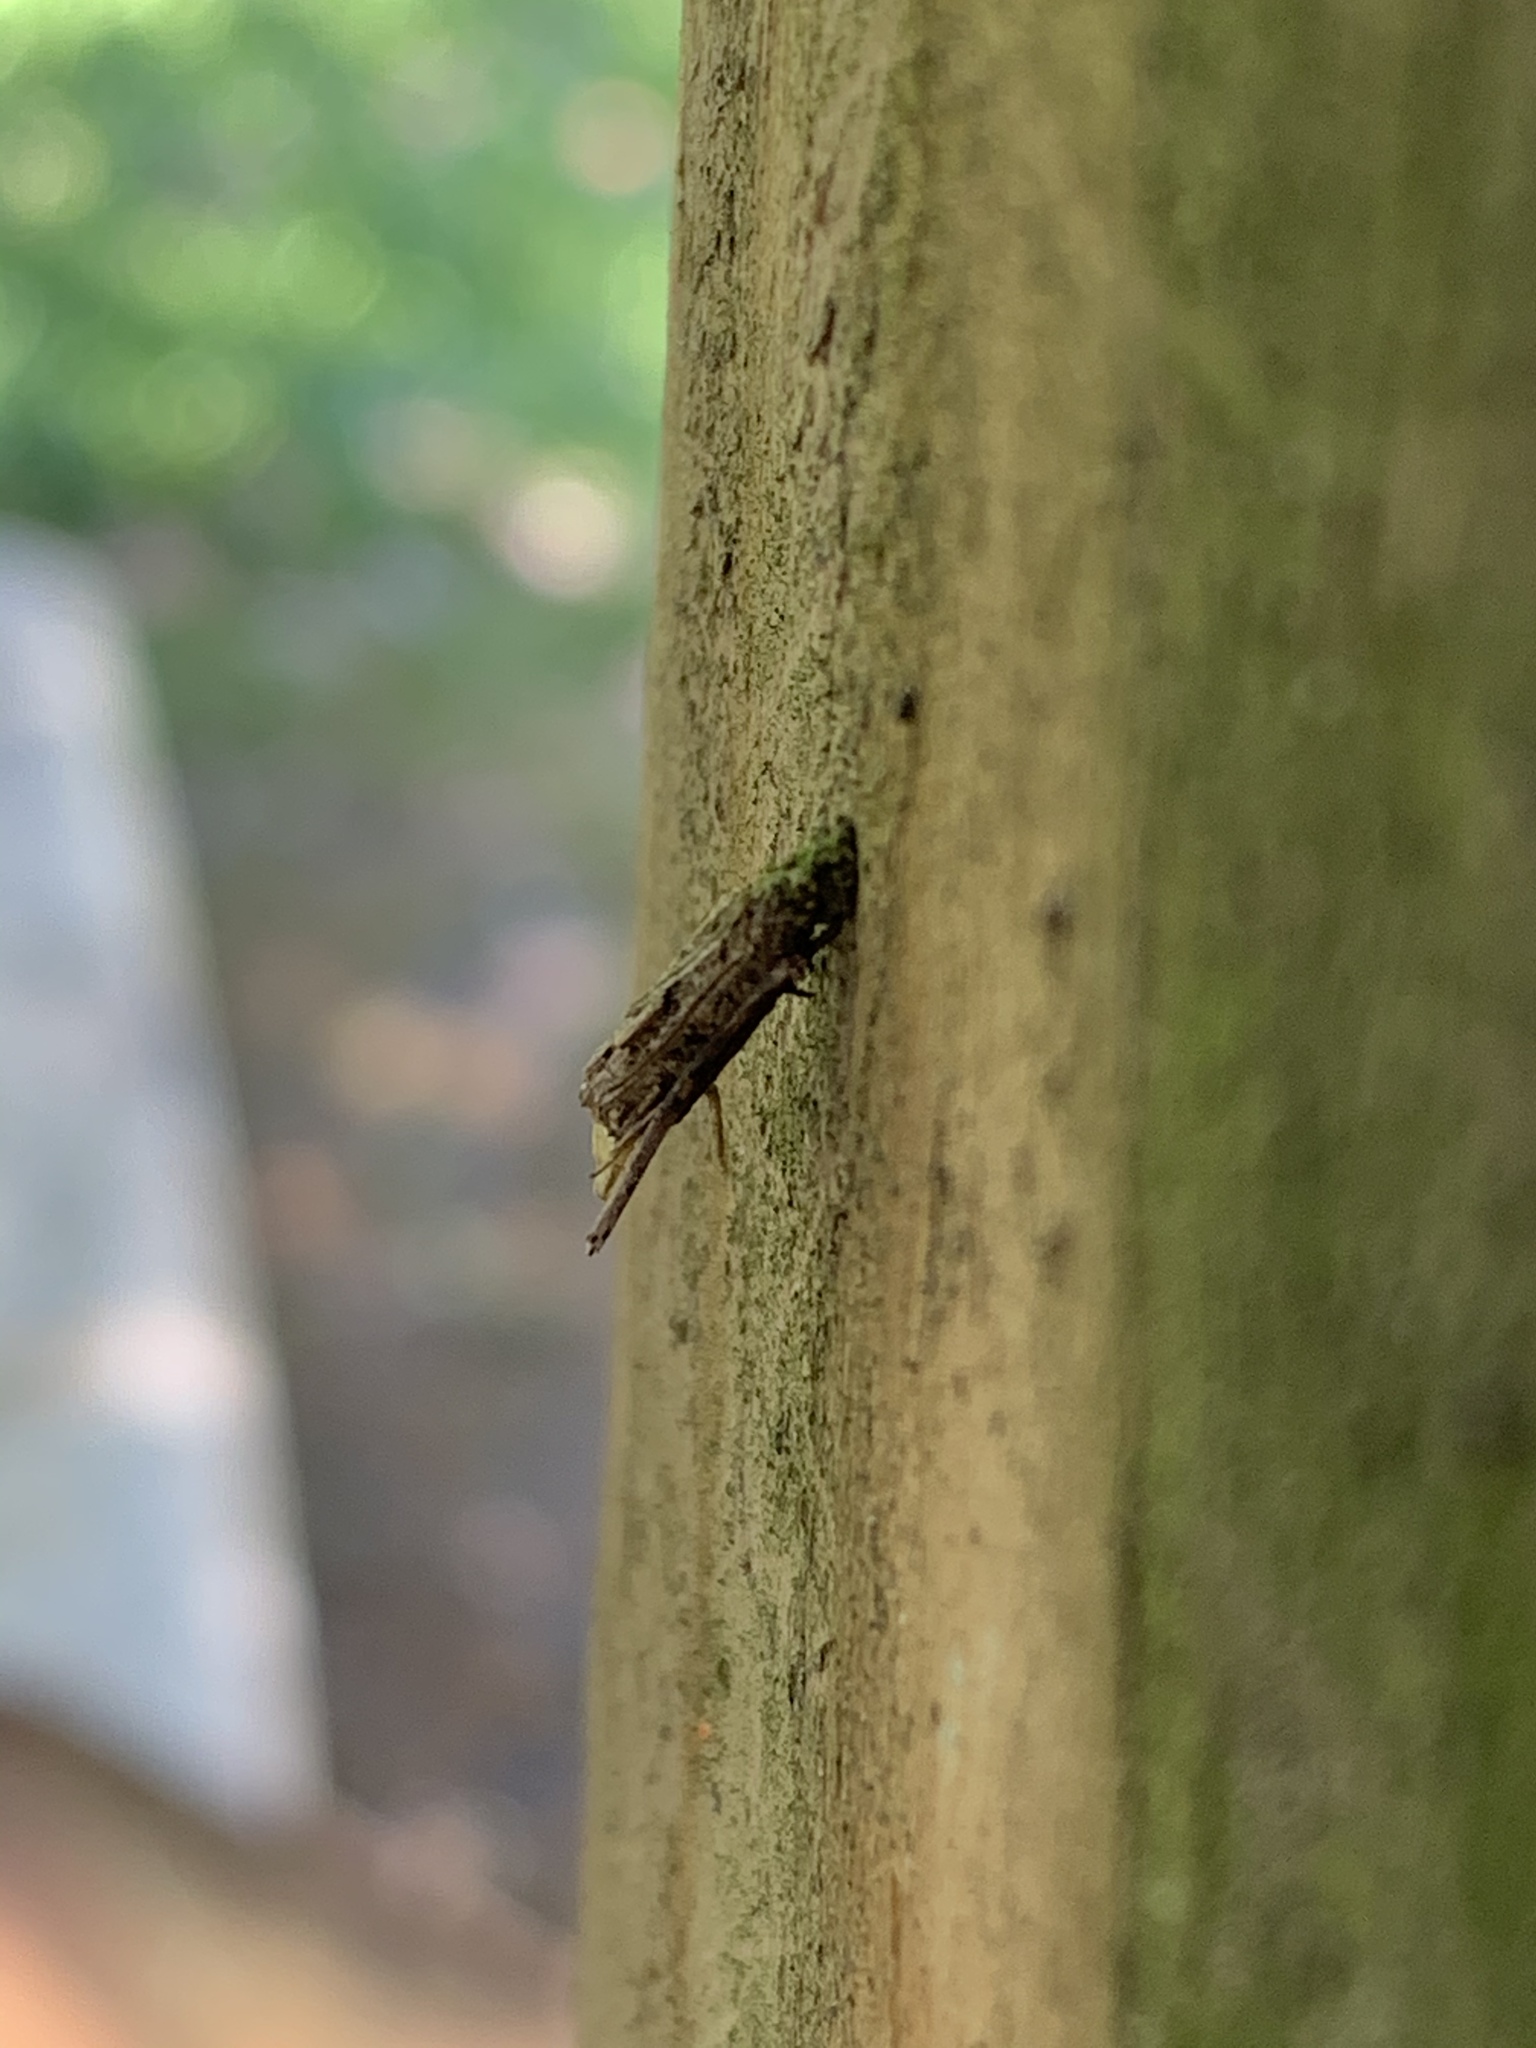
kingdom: Animalia
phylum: Arthropoda
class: Insecta
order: Lepidoptera
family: Psychidae
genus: Psyche
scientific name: Psyche casta
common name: Common sweep
